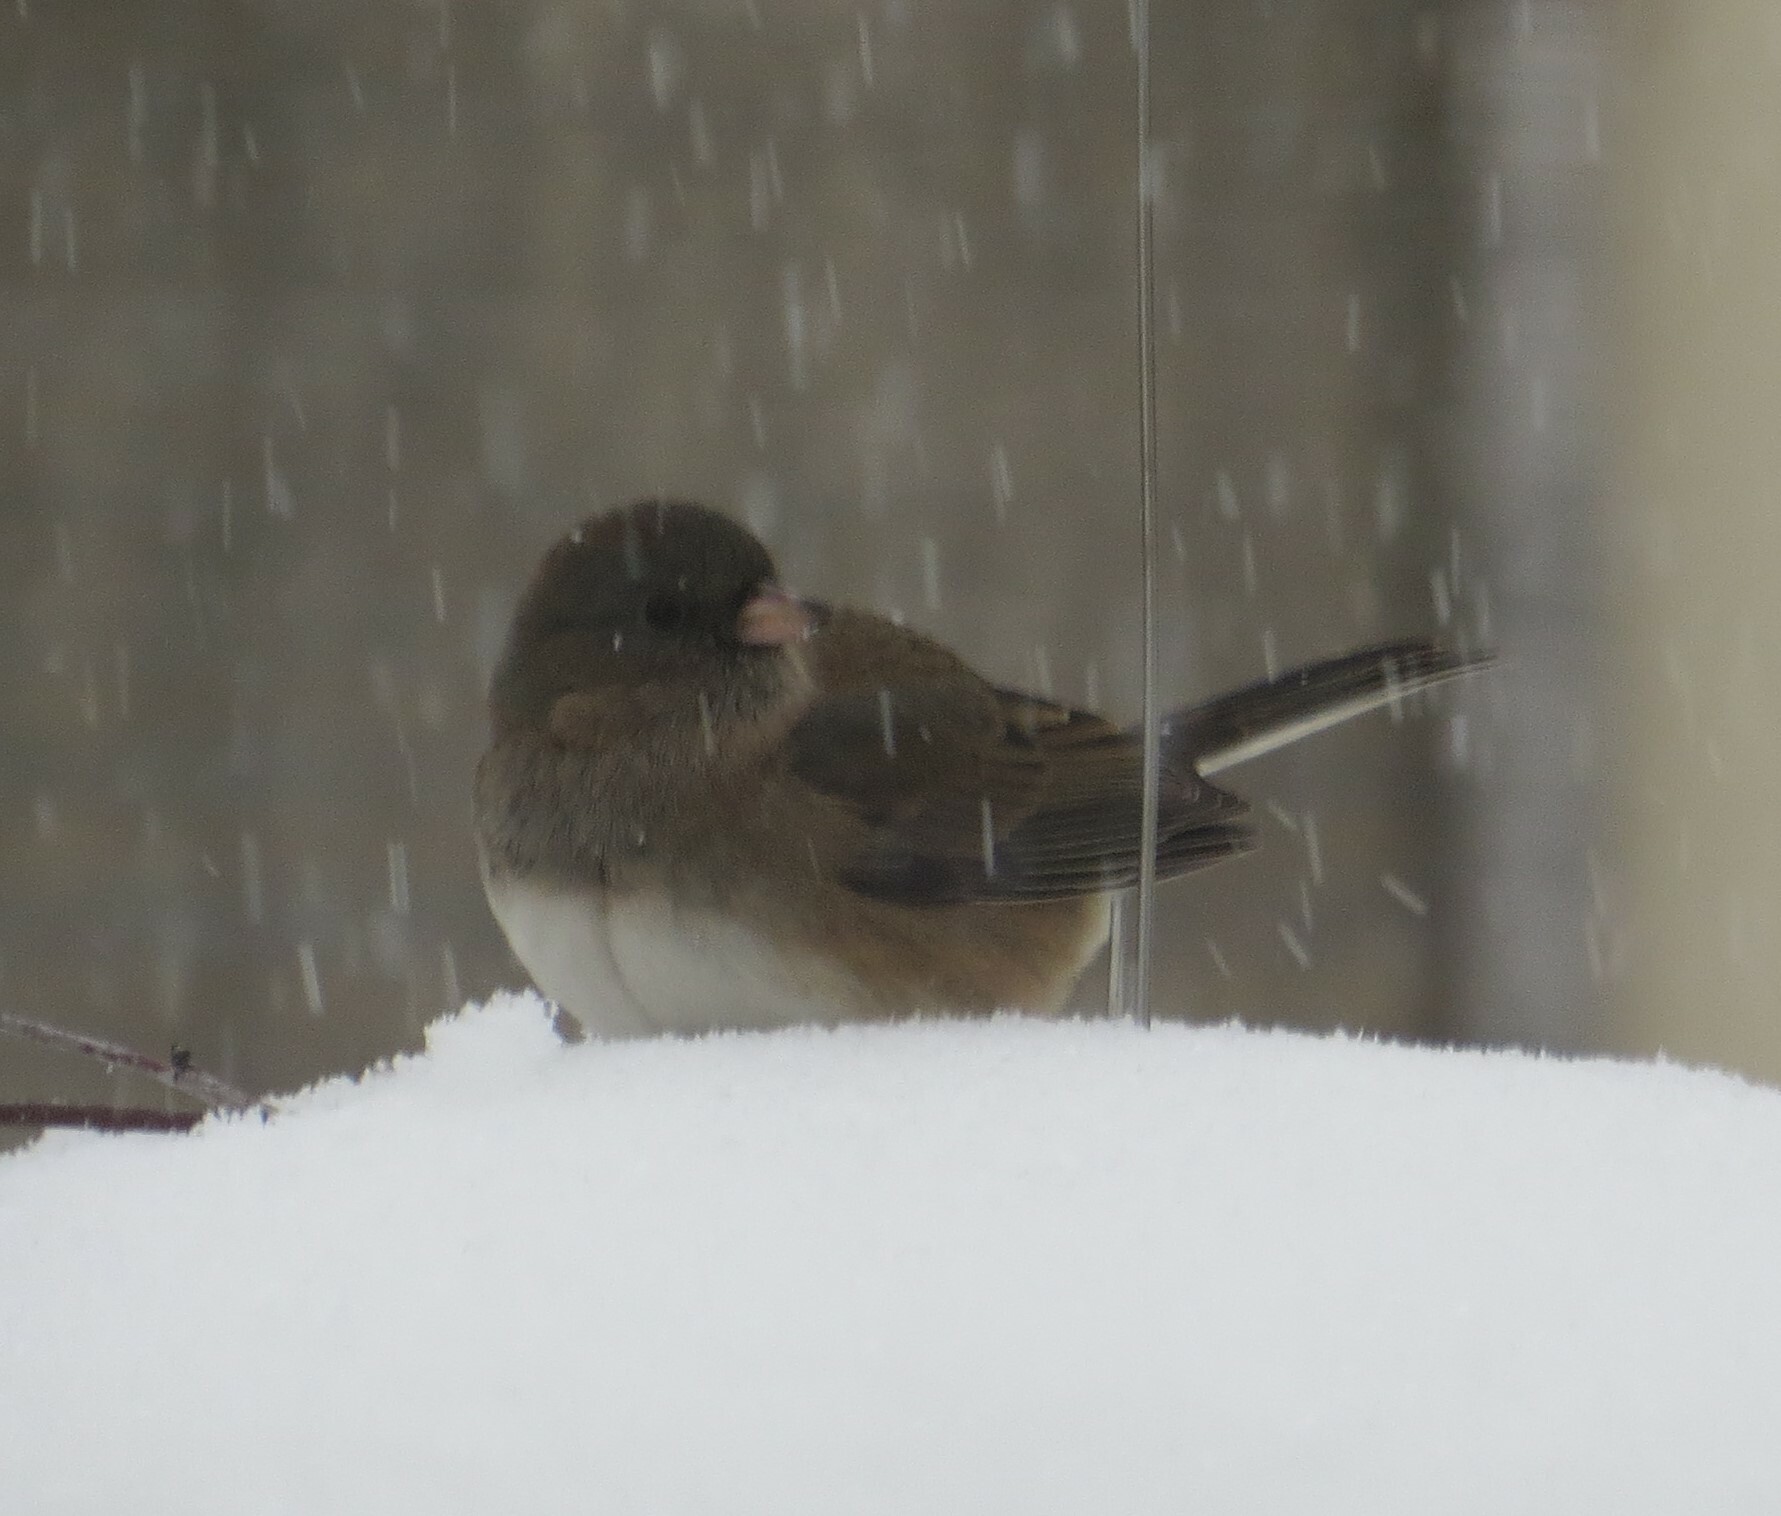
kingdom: Animalia
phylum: Chordata
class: Aves
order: Passeriformes
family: Passerellidae
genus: Junco
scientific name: Junco hyemalis
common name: Dark-eyed junco
